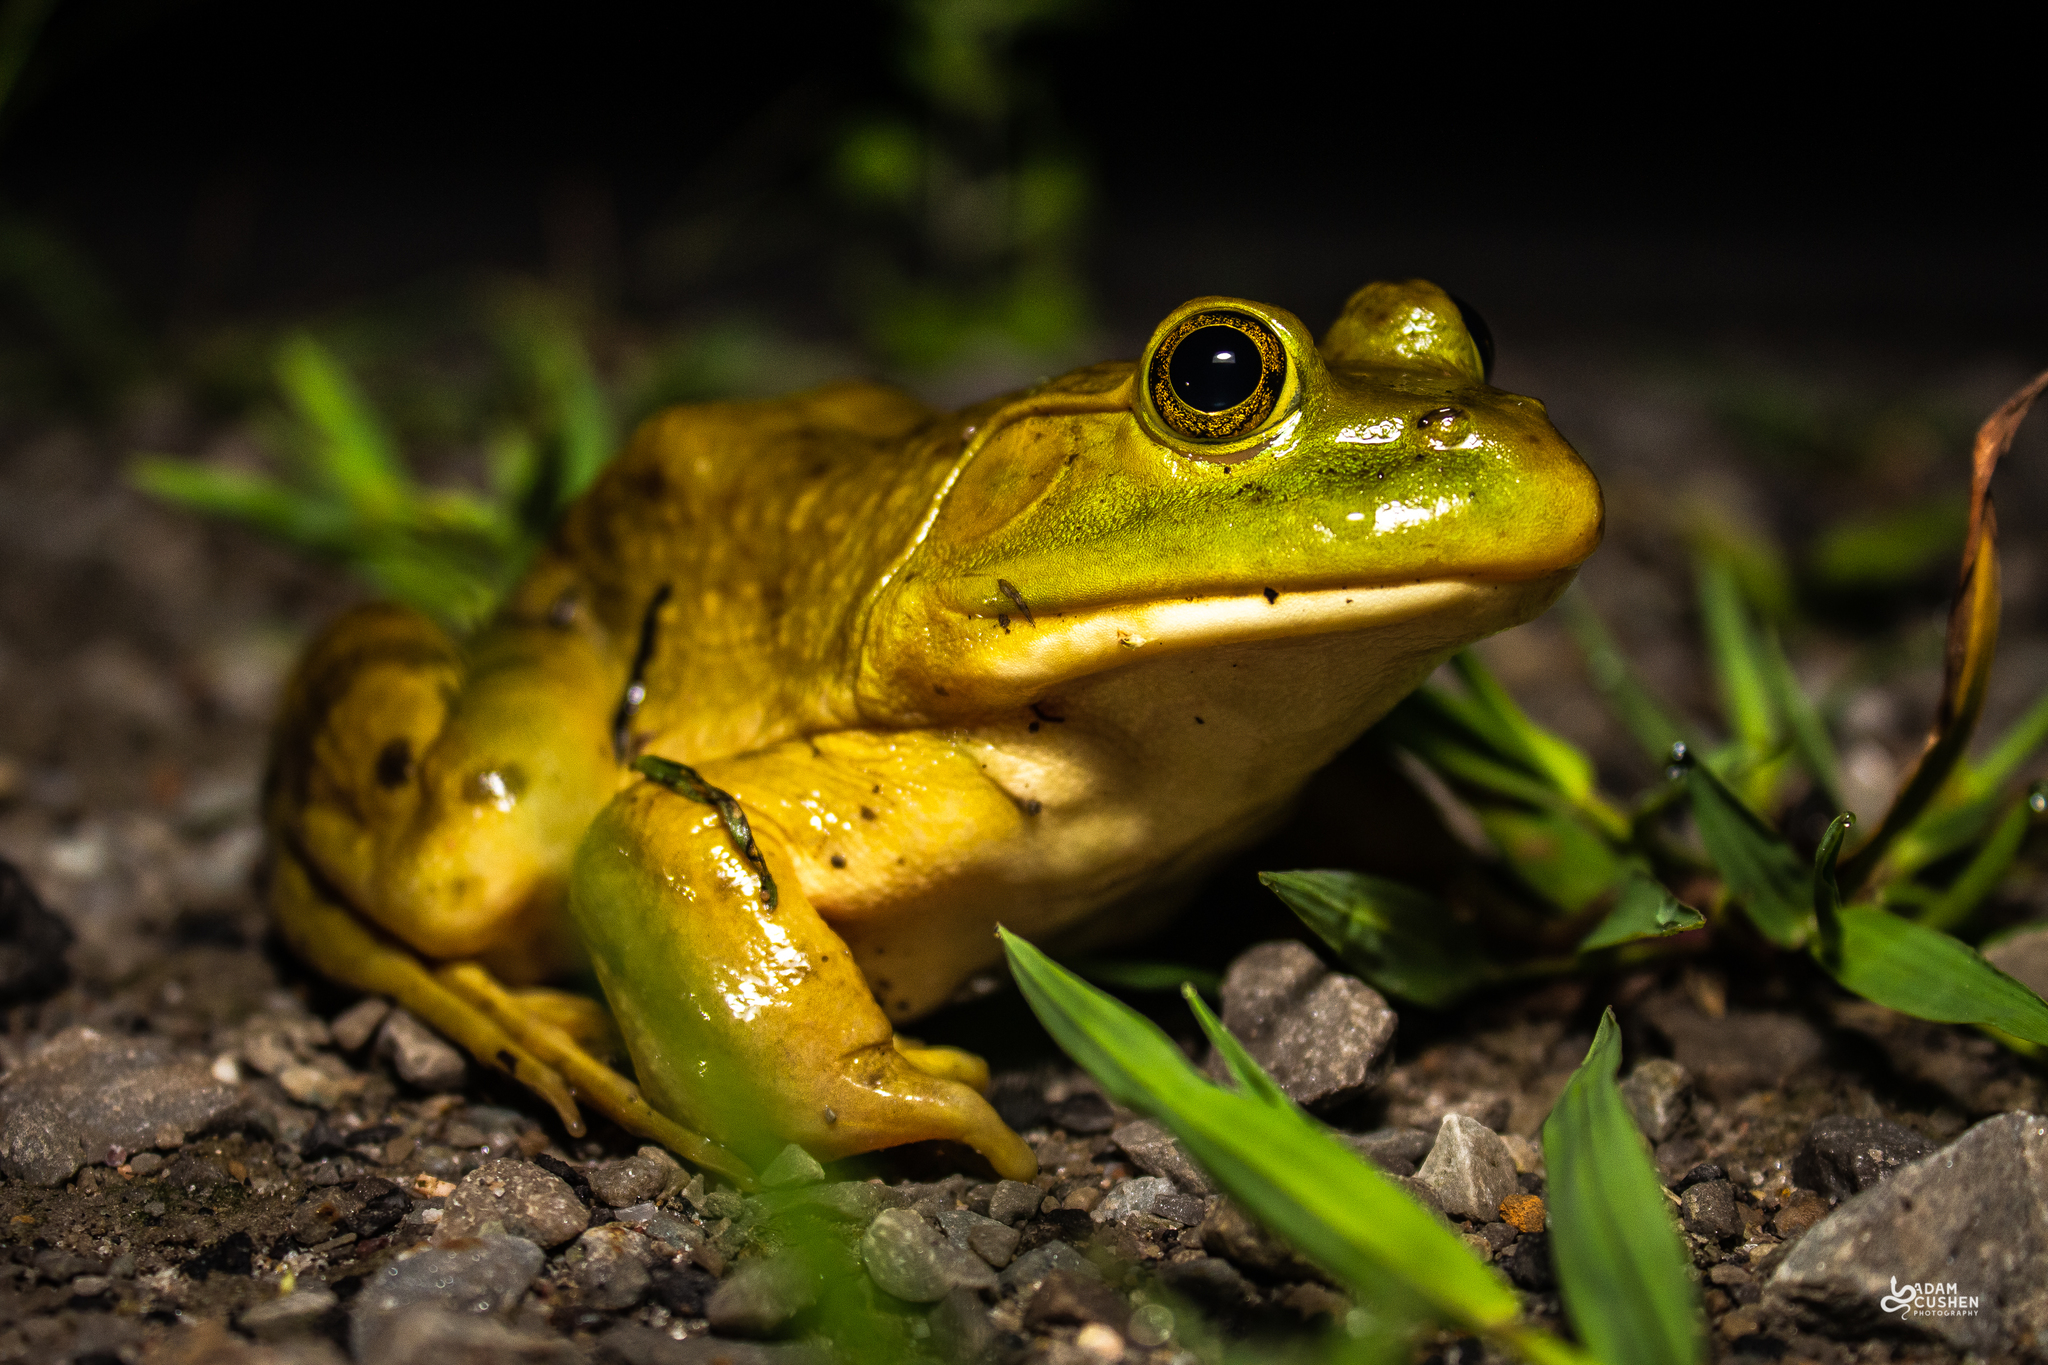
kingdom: Animalia
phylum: Chordata
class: Amphibia
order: Anura
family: Ranidae
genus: Lithobates
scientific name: Lithobates catesbeianus
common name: American bullfrog
